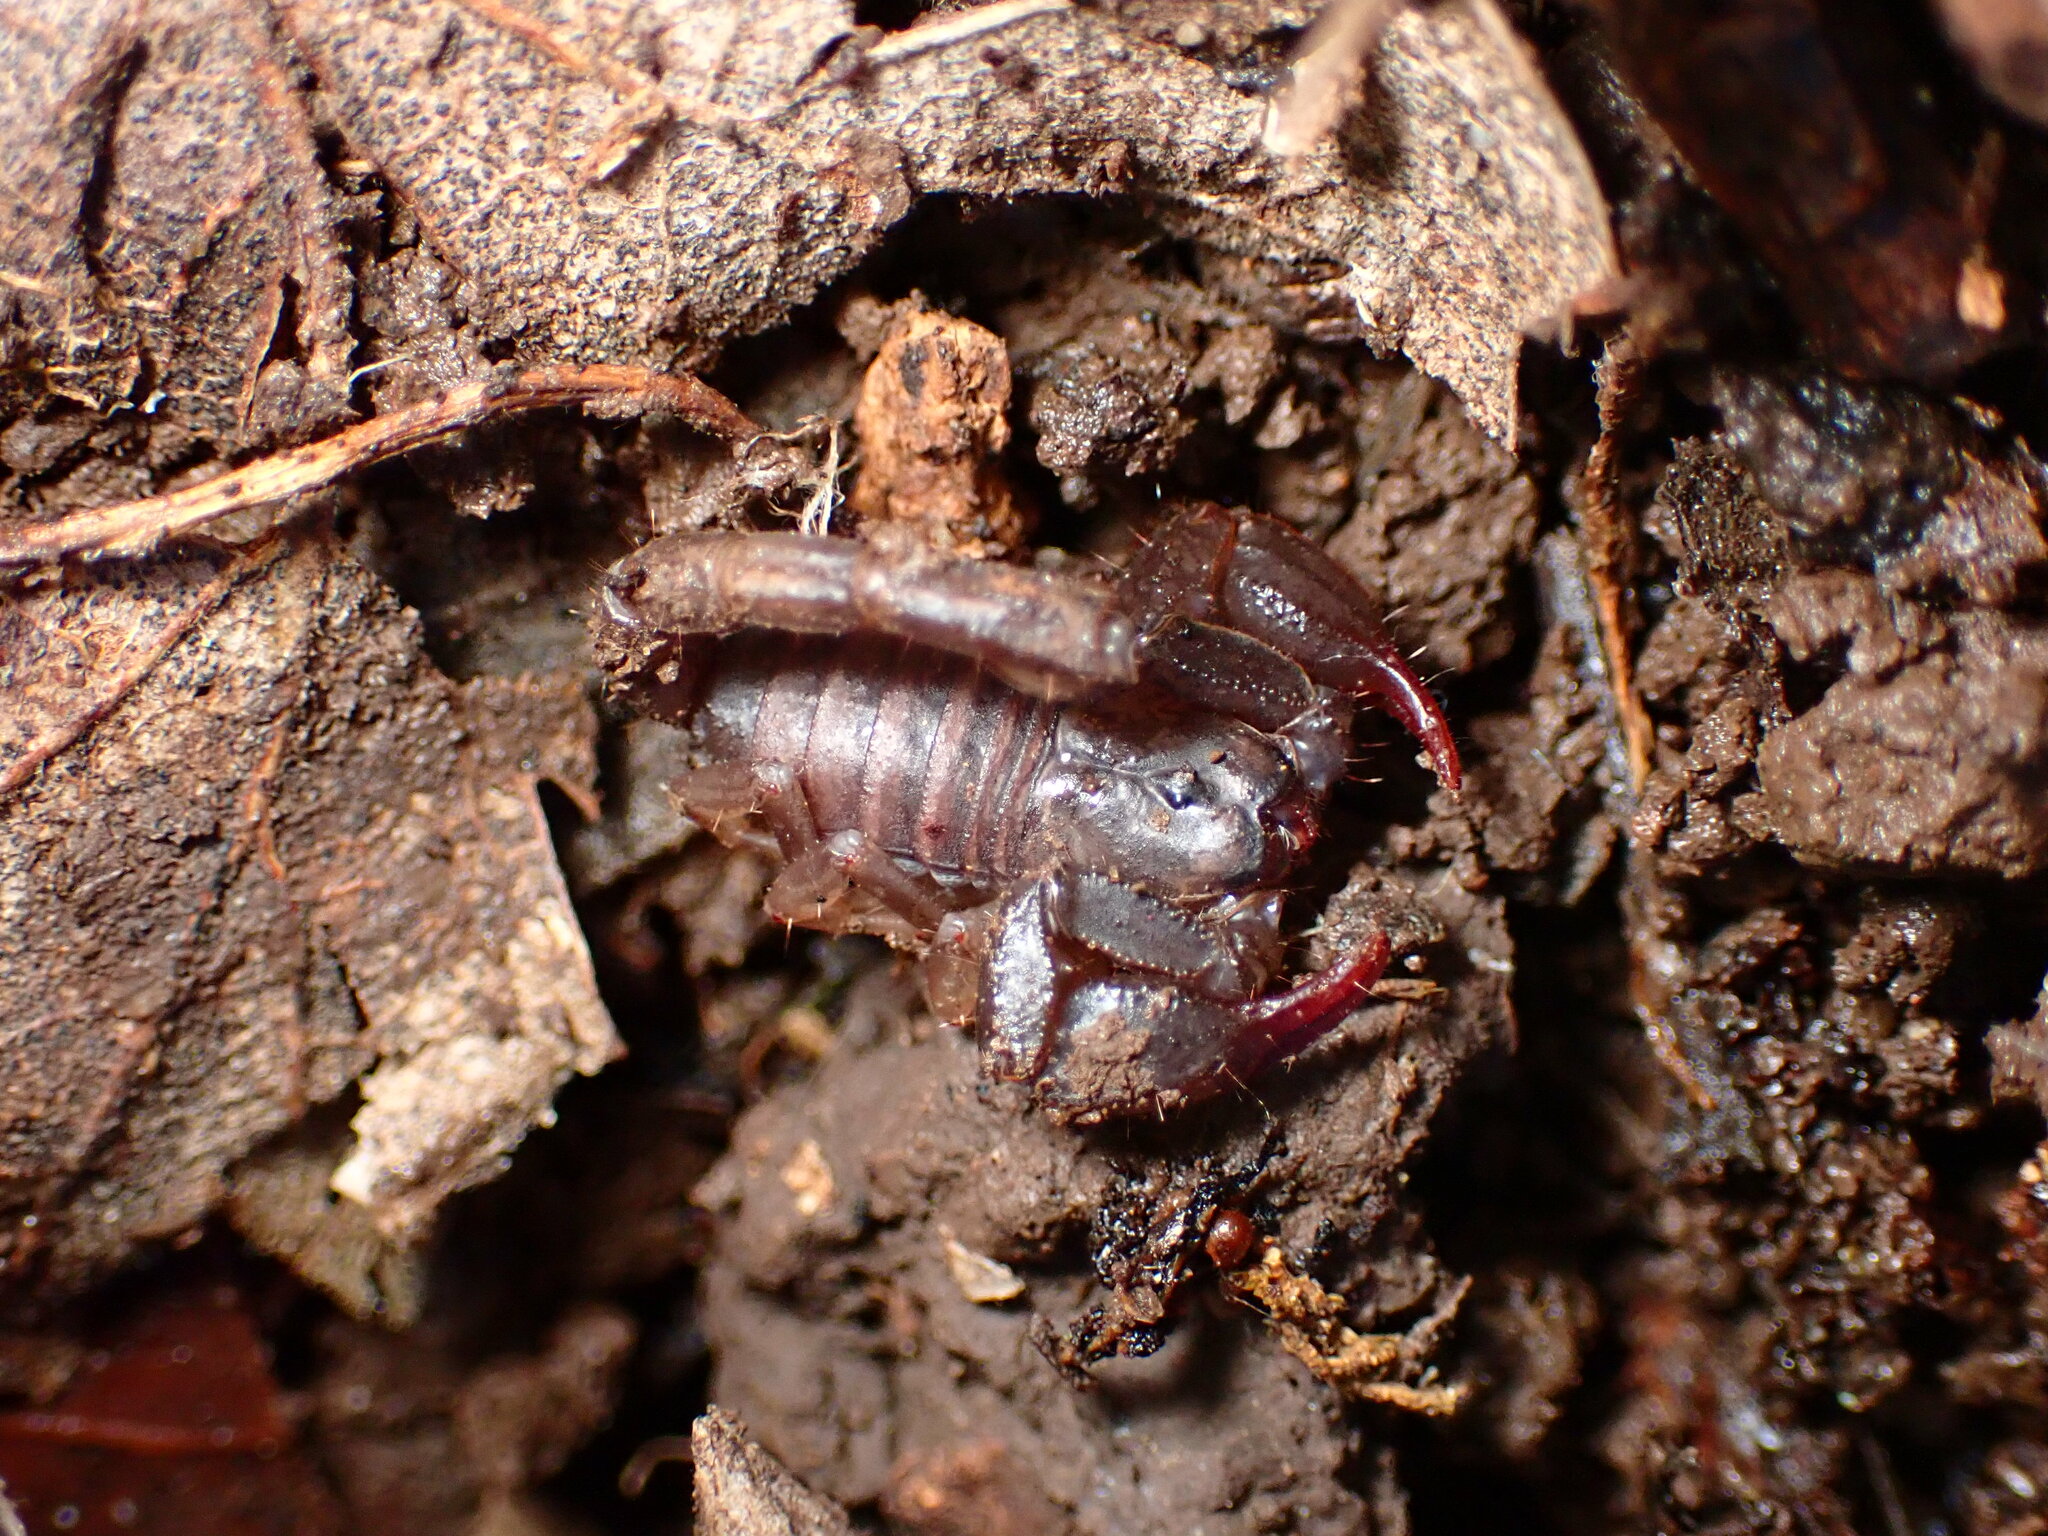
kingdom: Animalia
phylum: Arthropoda
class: Arachnida
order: Scorpiones
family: Chactidae
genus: Uroctonus
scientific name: Uroctonus mordax
